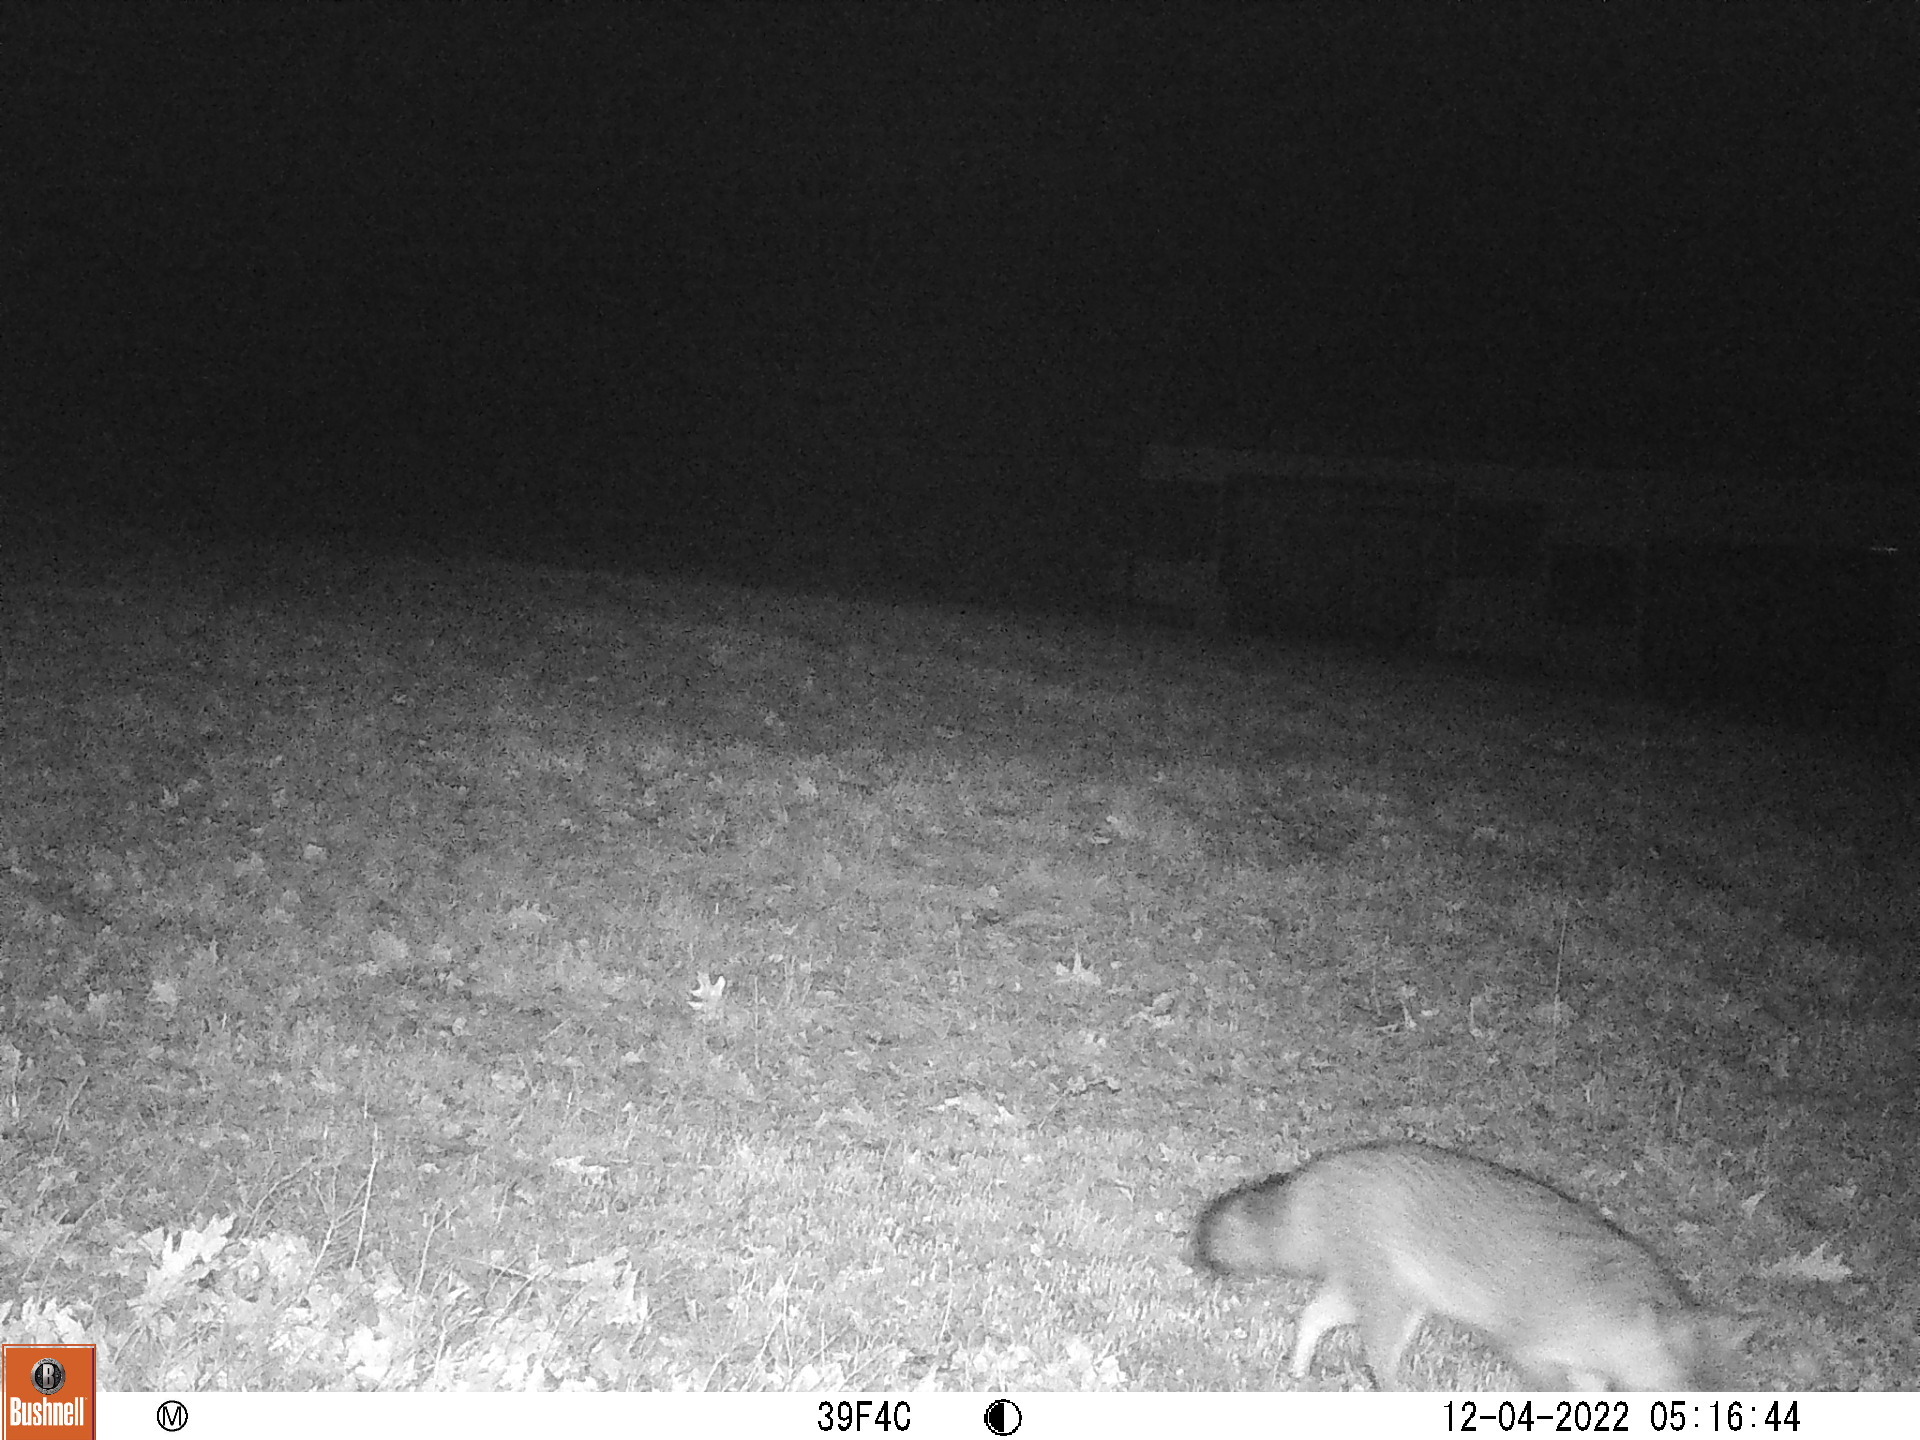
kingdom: Animalia
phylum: Chordata
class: Mammalia
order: Carnivora
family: Canidae
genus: Urocyon
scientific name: Urocyon cinereoargenteus
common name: Gray fox
